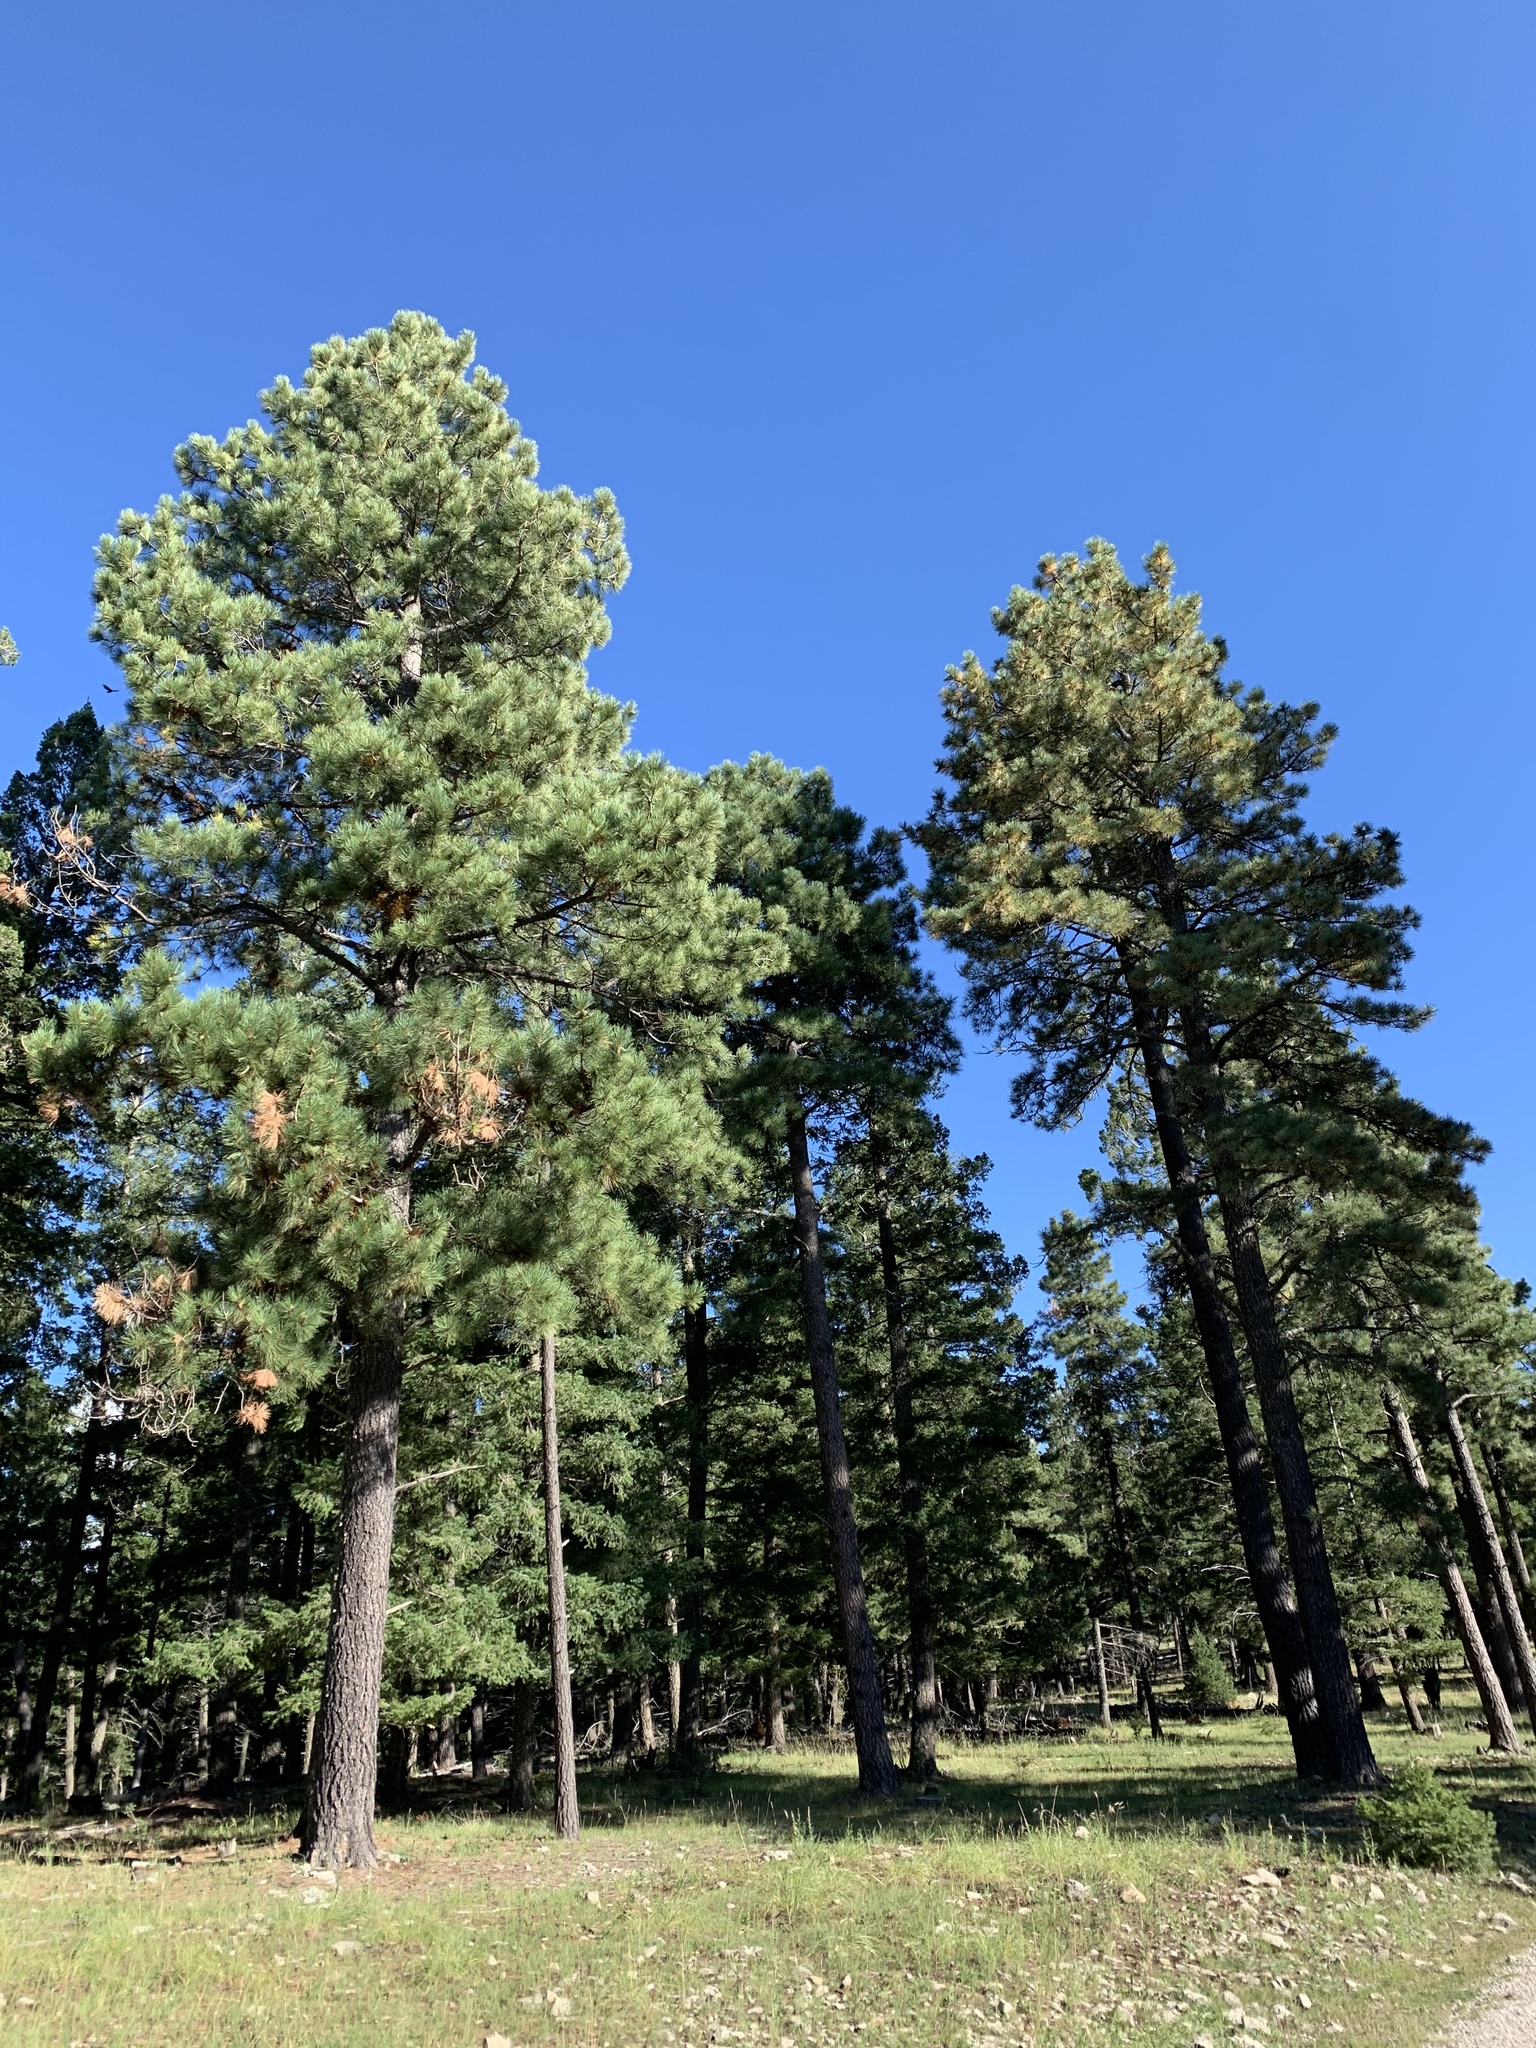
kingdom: Plantae
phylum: Tracheophyta
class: Pinopsida
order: Pinales
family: Pinaceae
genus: Pinus
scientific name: Pinus ponderosa
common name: Western yellow-pine
